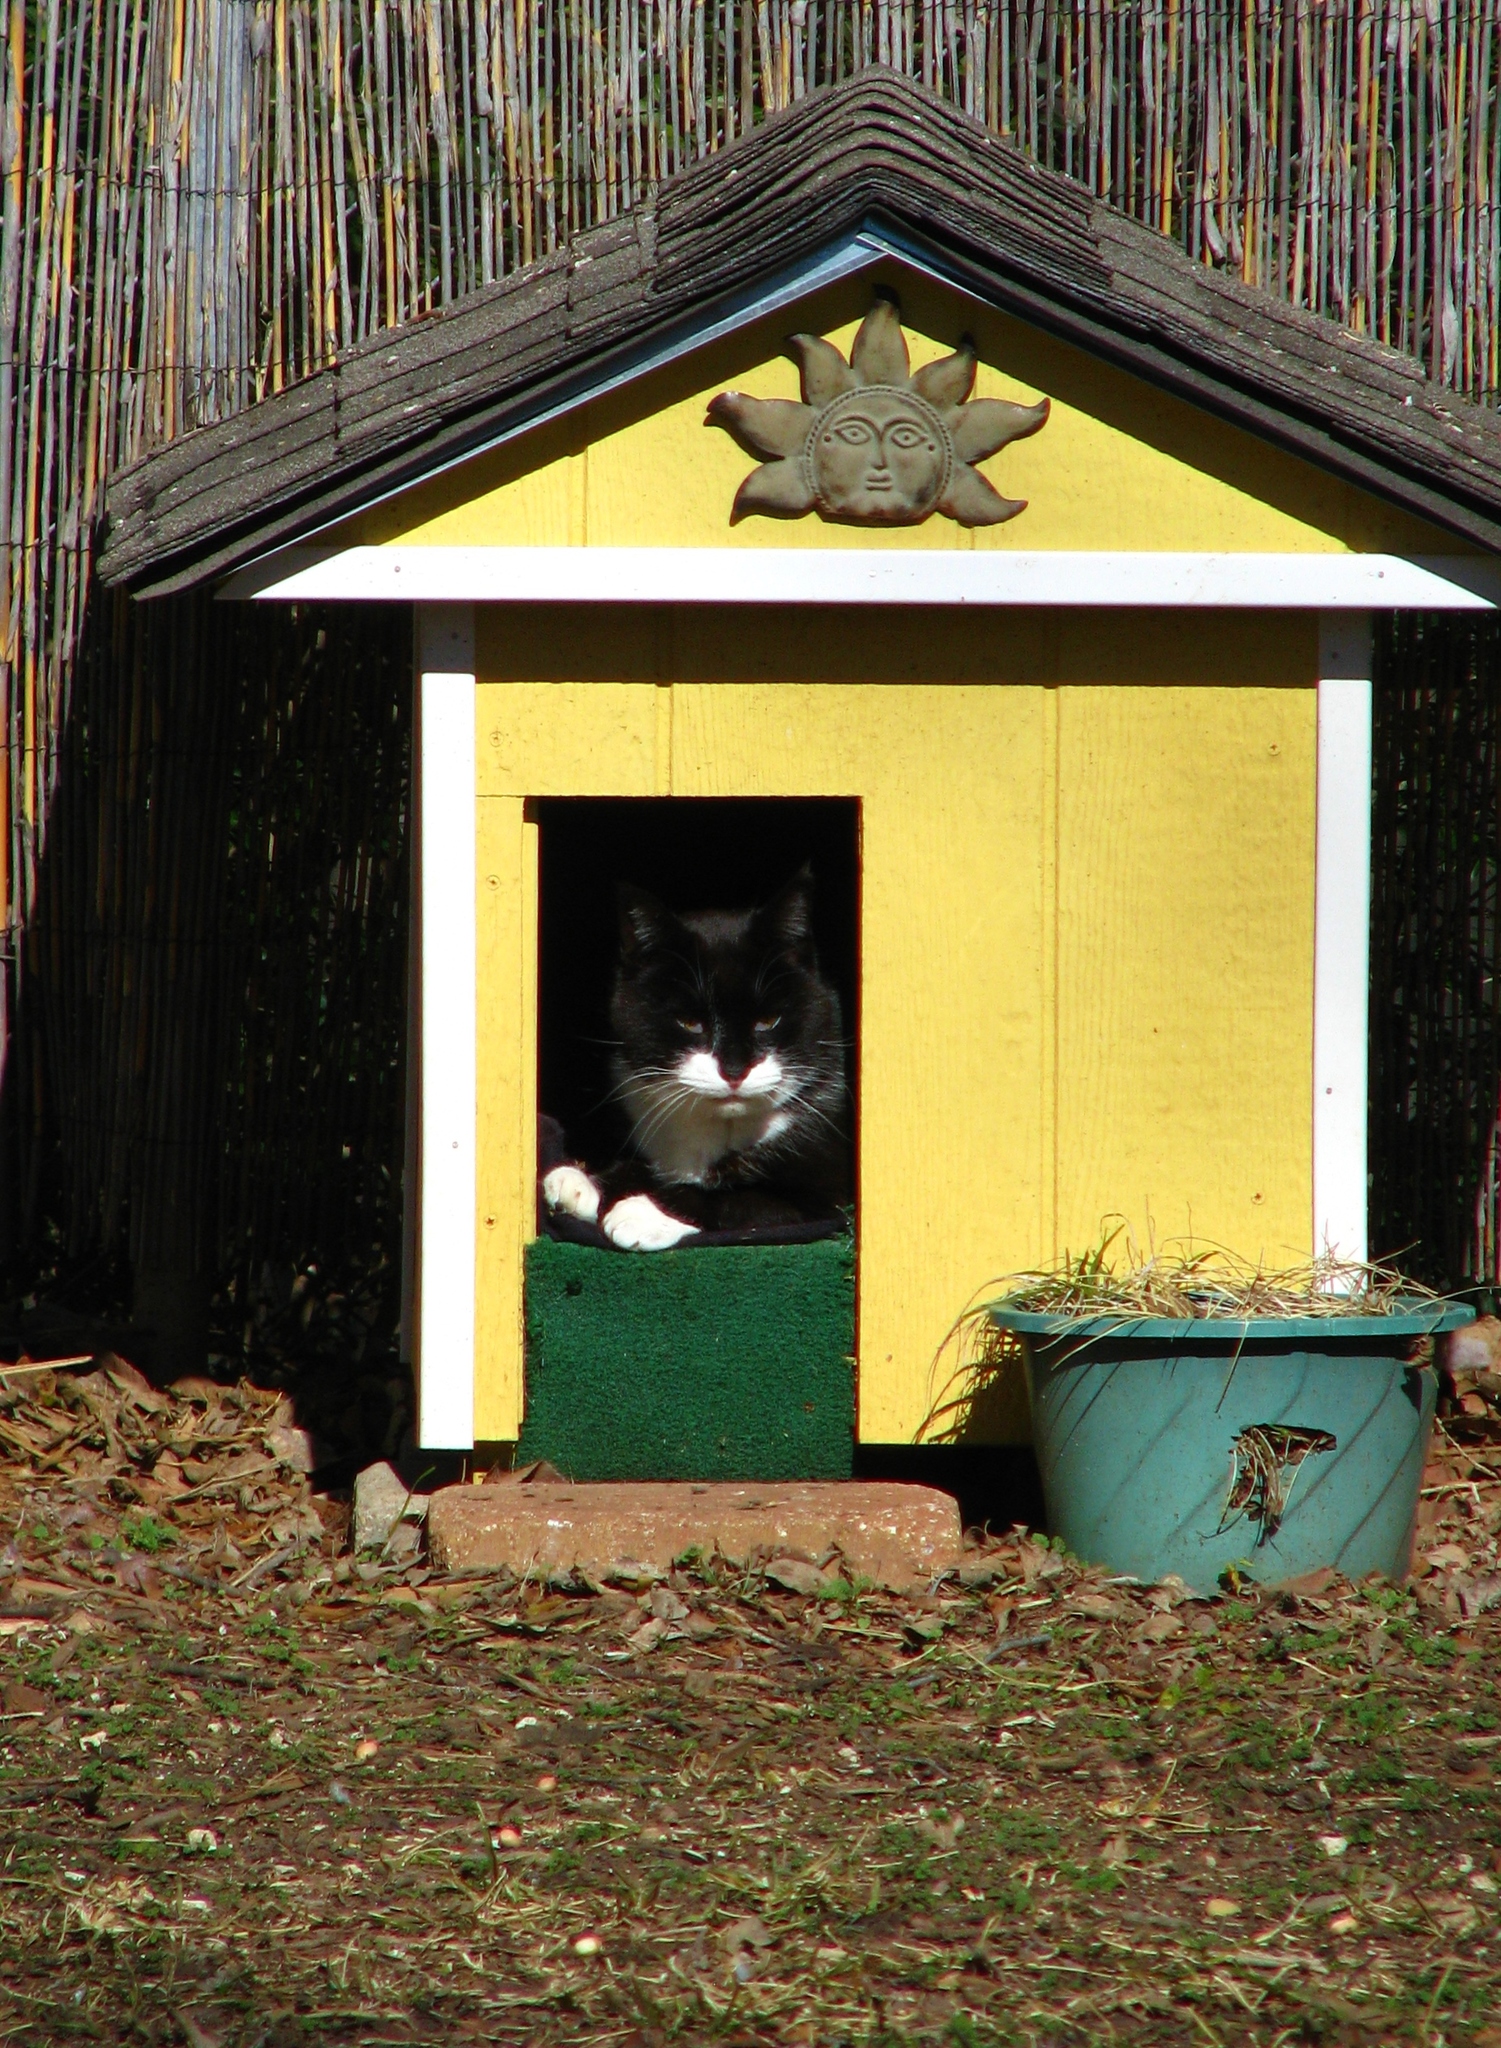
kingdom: Animalia
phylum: Chordata
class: Mammalia
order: Carnivora
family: Felidae
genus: Felis
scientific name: Felis catus
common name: Domestic cat
